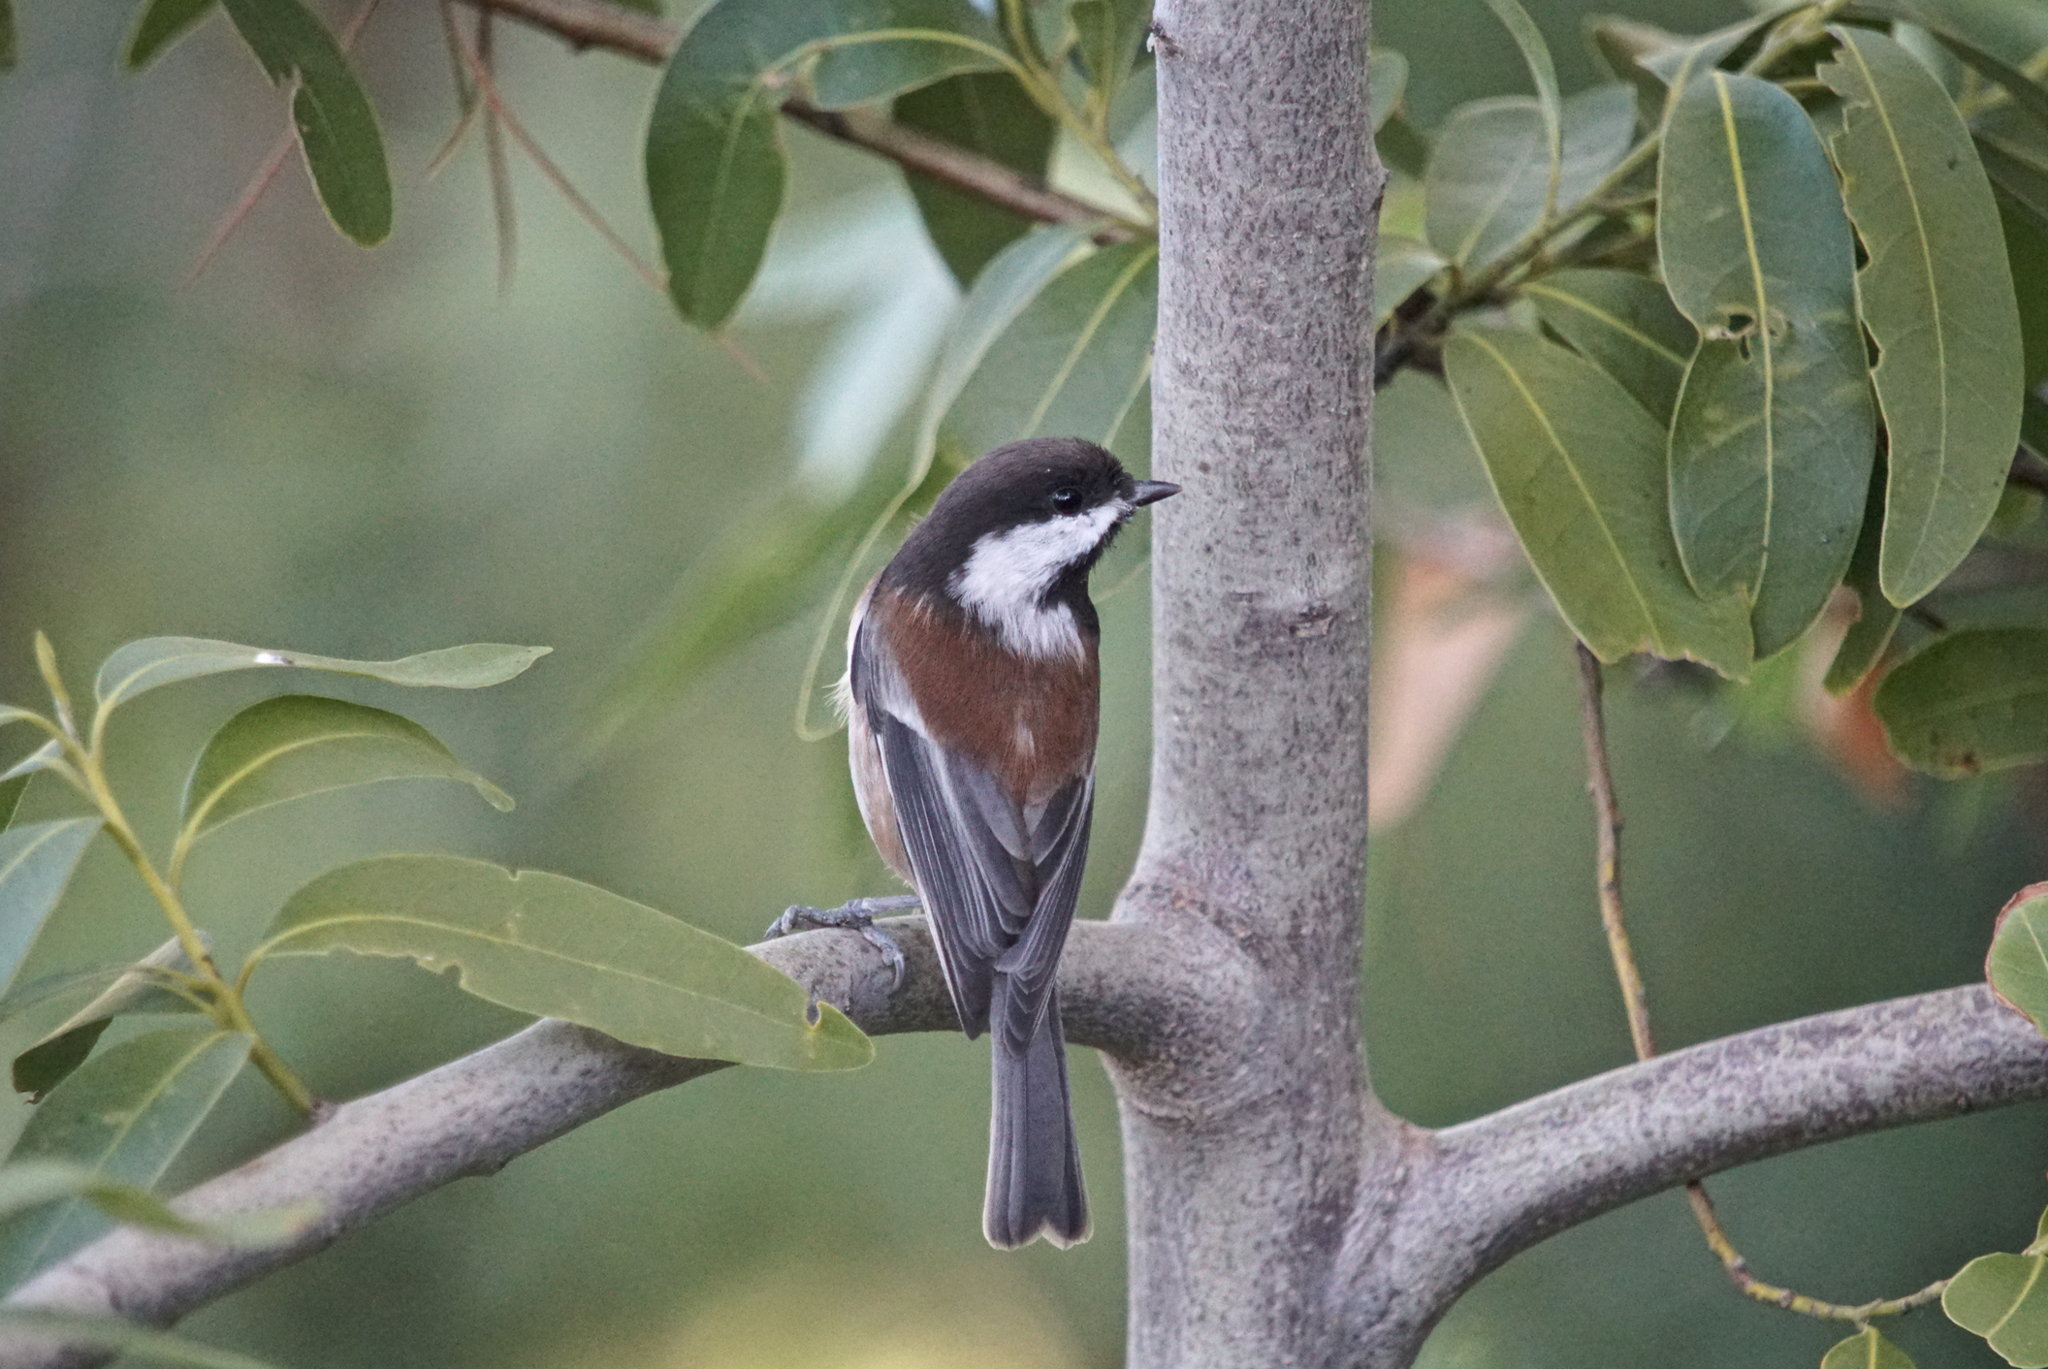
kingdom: Animalia
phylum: Chordata
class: Aves
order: Passeriformes
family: Paridae
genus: Poecile
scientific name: Poecile rufescens
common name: Chestnut-backed chickadee
